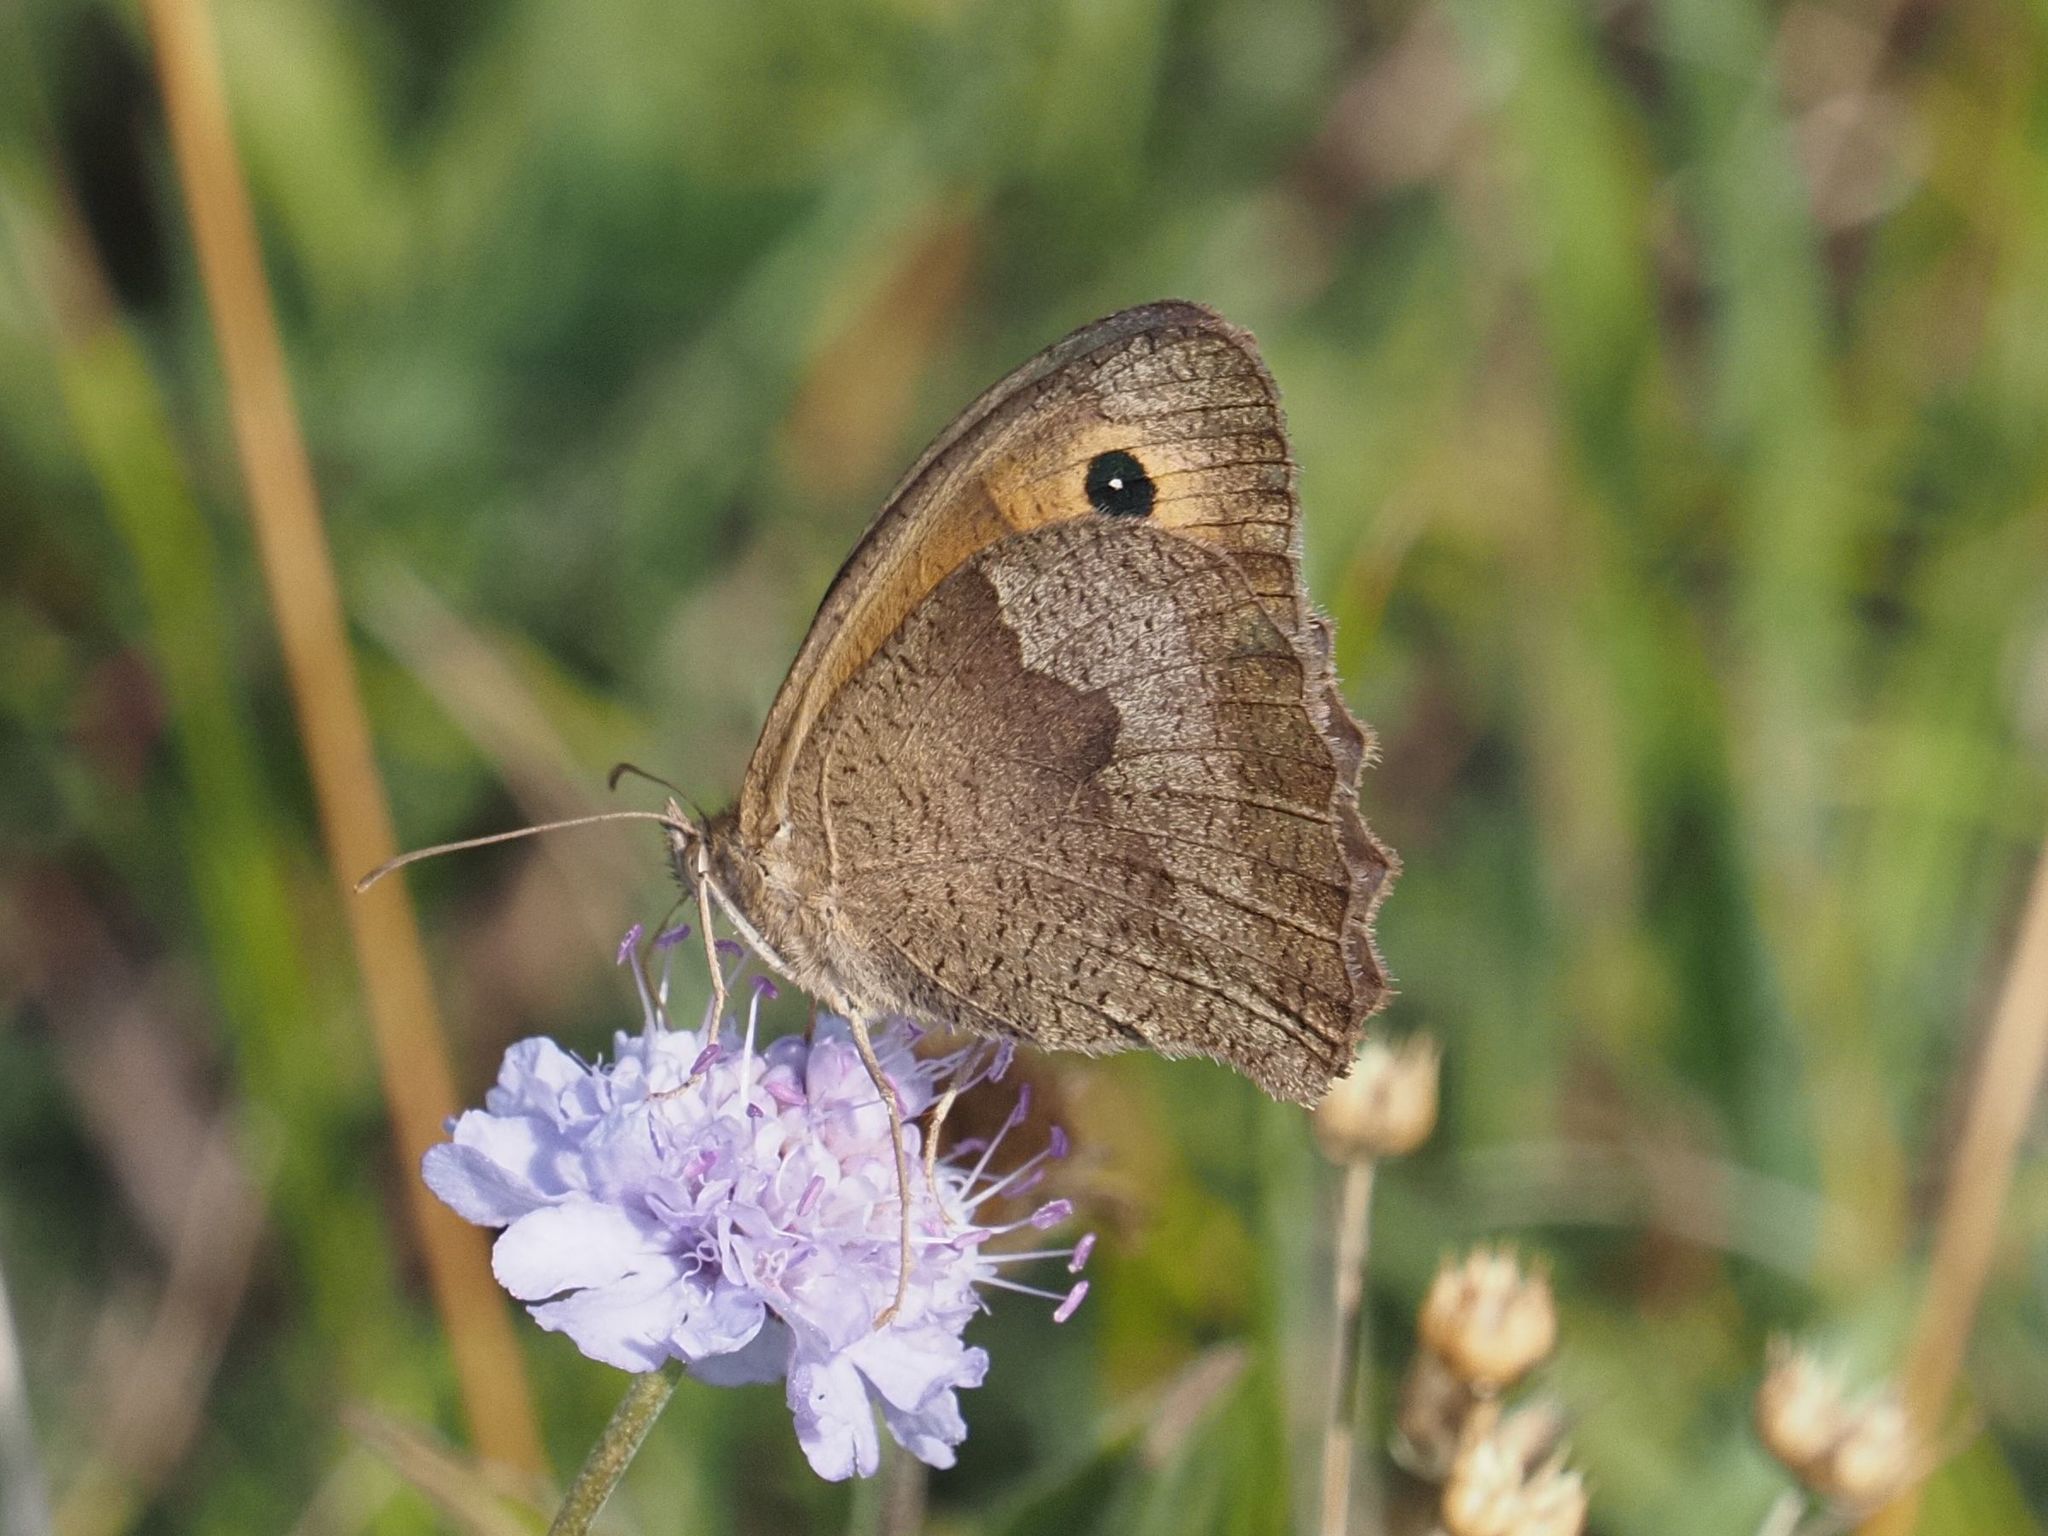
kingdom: Animalia
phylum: Arthropoda
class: Insecta
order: Lepidoptera
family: Nymphalidae
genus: Maniola
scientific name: Maniola jurtina
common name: Meadow brown
